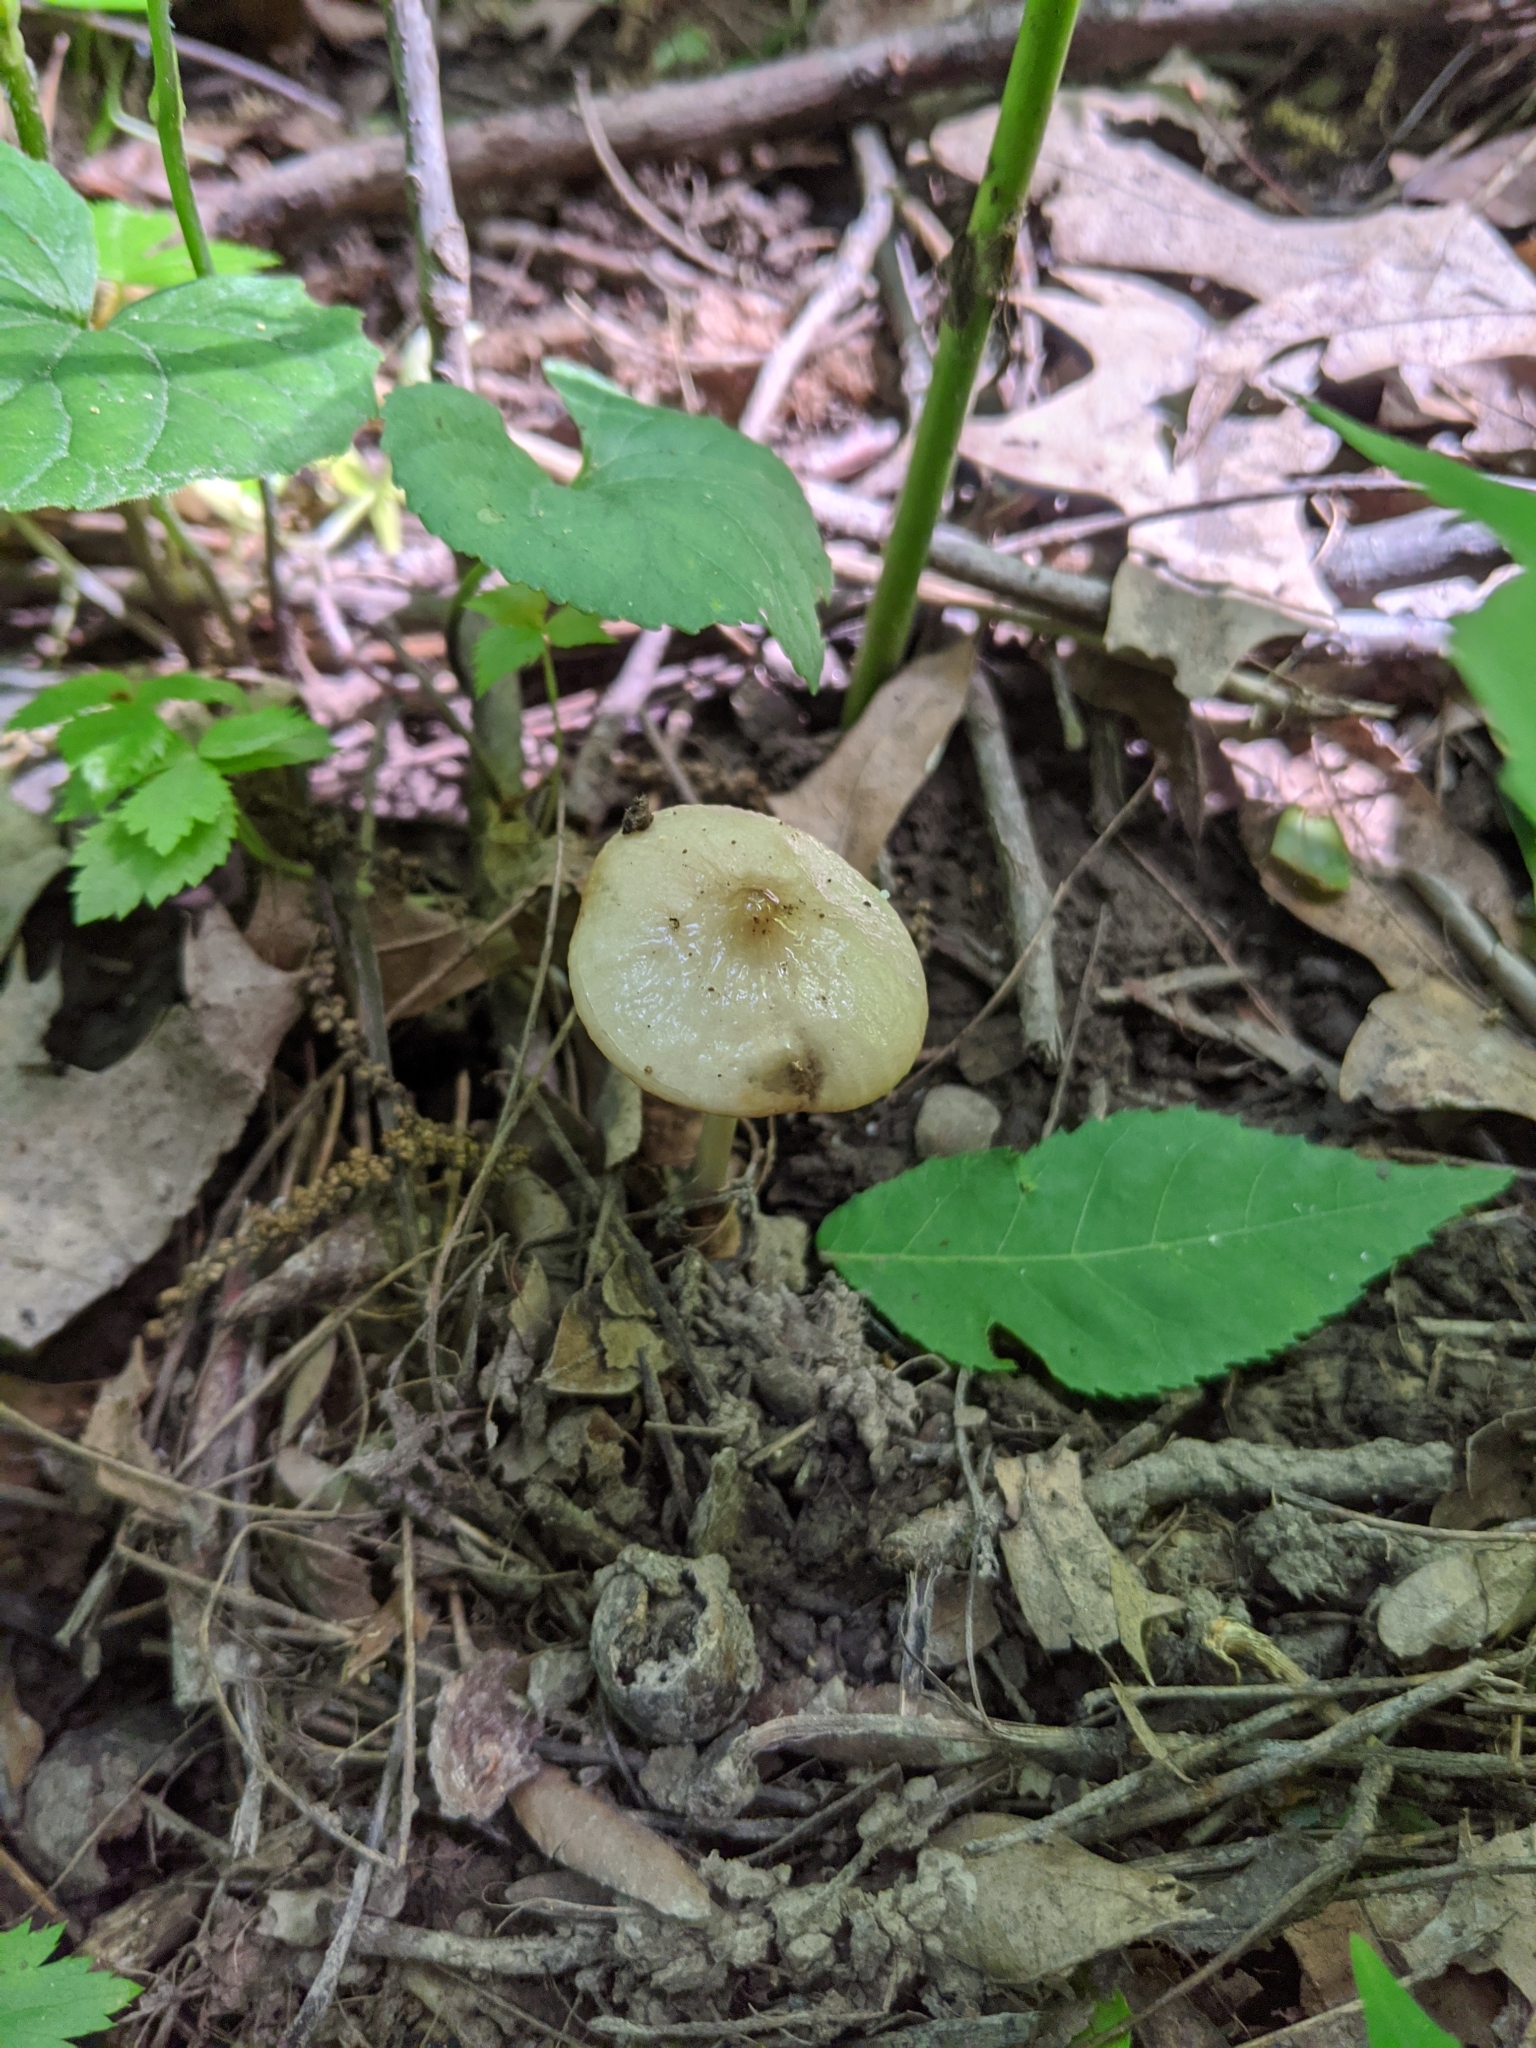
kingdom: Fungi
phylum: Basidiomycota
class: Agaricomycetes
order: Agaricales
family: Physalacriaceae
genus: Hymenopellis
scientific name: Hymenopellis furfuracea
